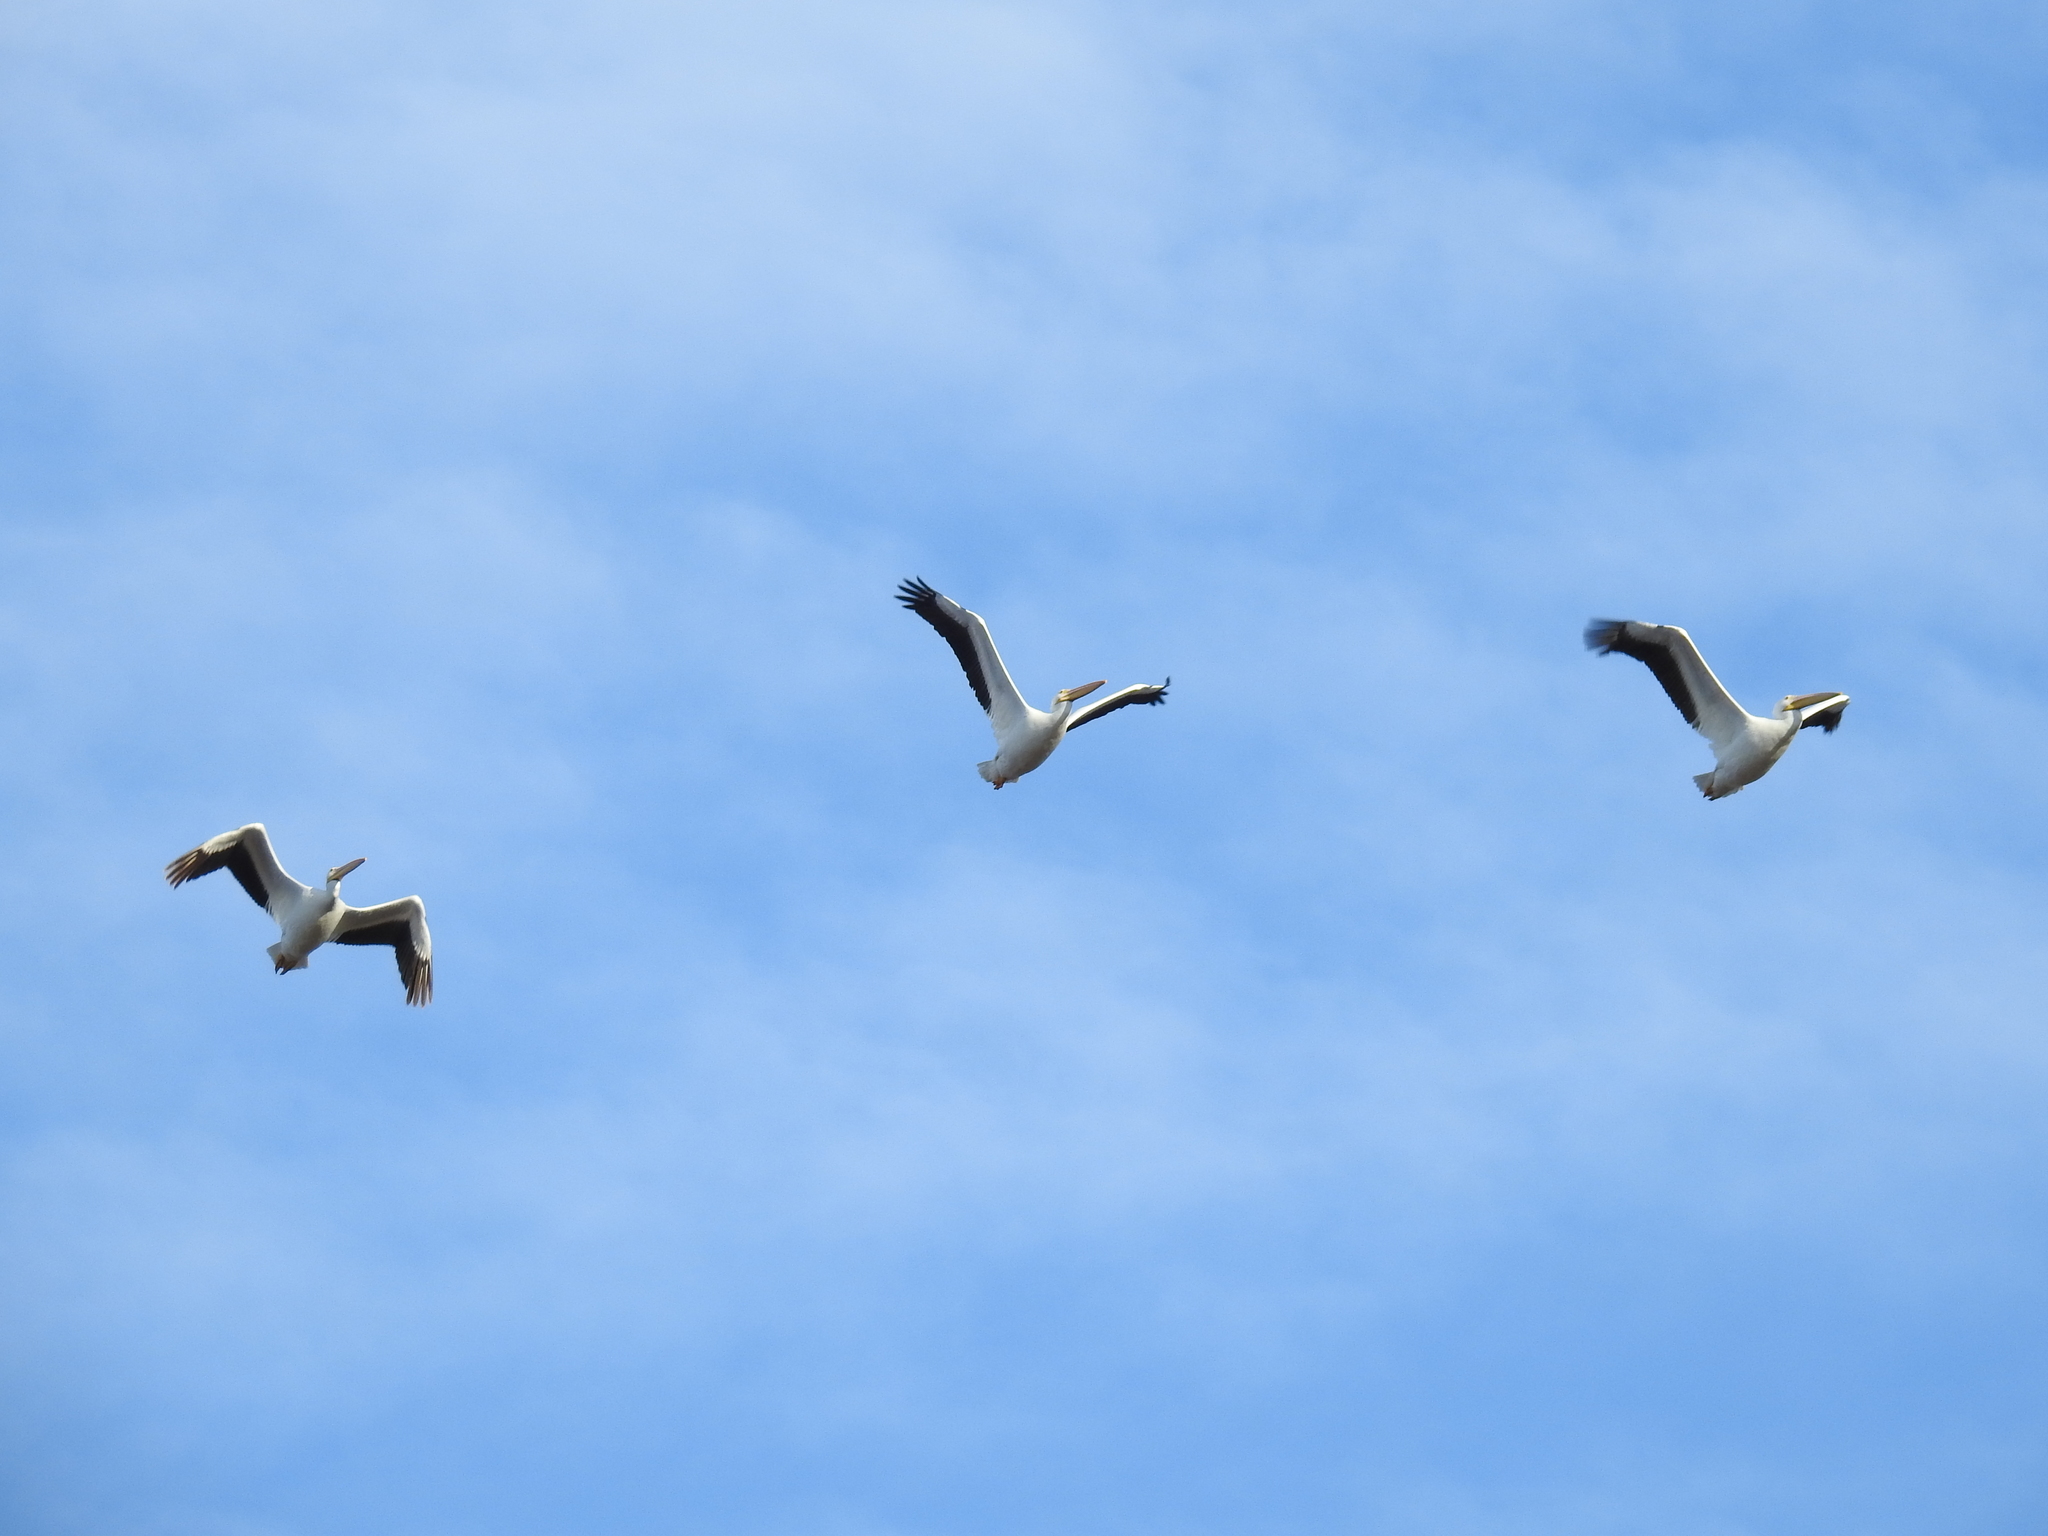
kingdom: Animalia
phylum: Chordata
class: Aves
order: Pelecaniformes
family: Pelecanidae
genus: Pelecanus
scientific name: Pelecanus erythrorhynchos
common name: American white pelican
